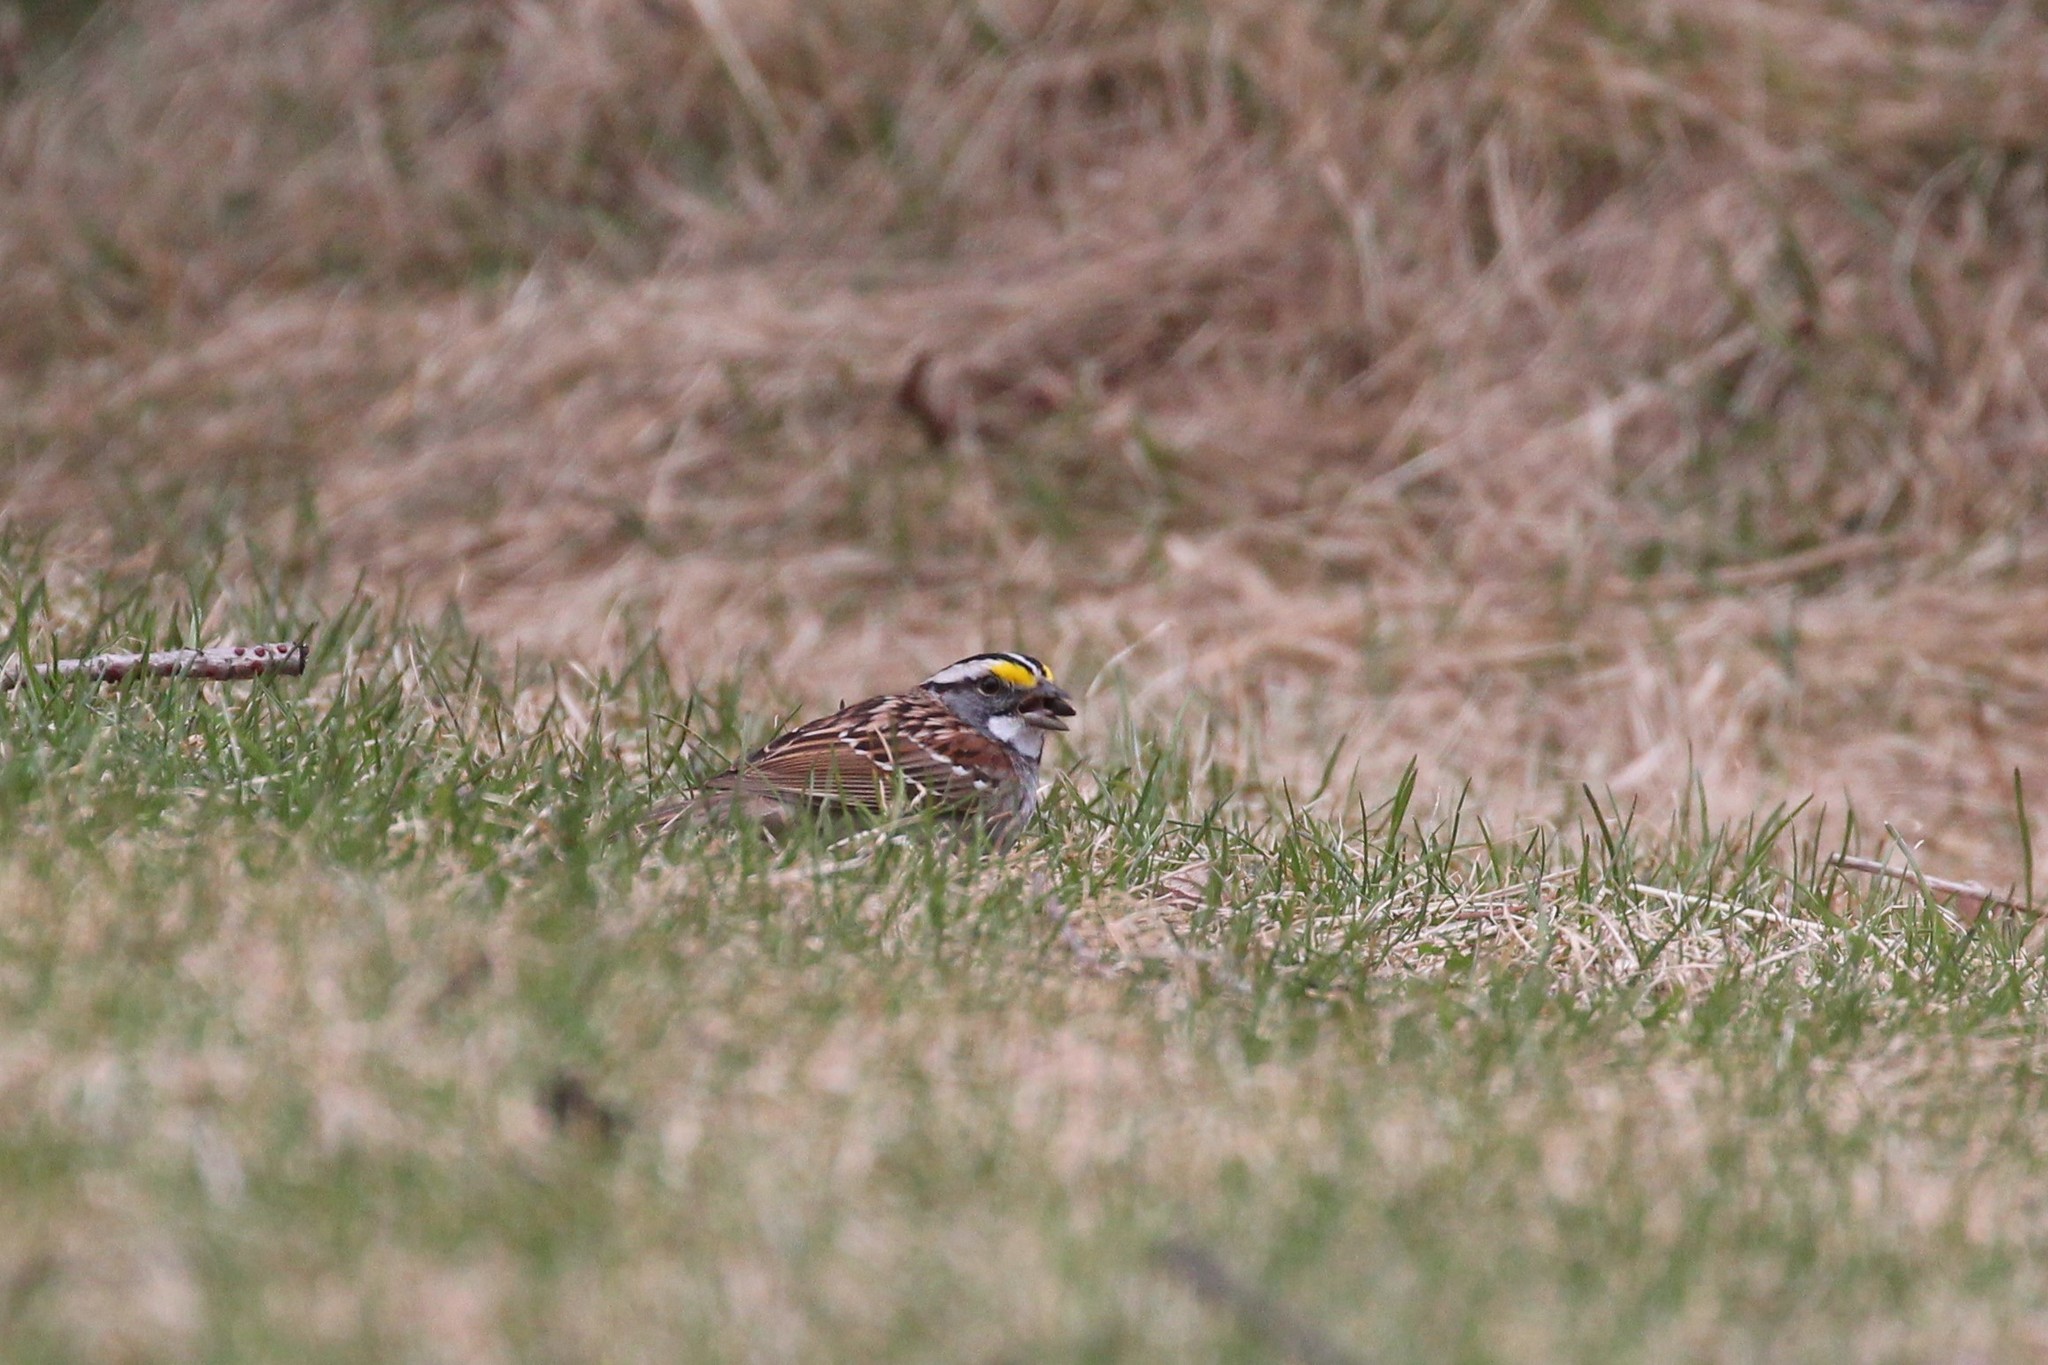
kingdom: Animalia
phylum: Chordata
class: Aves
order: Passeriformes
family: Passerellidae
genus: Zonotrichia
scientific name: Zonotrichia albicollis
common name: White-throated sparrow
